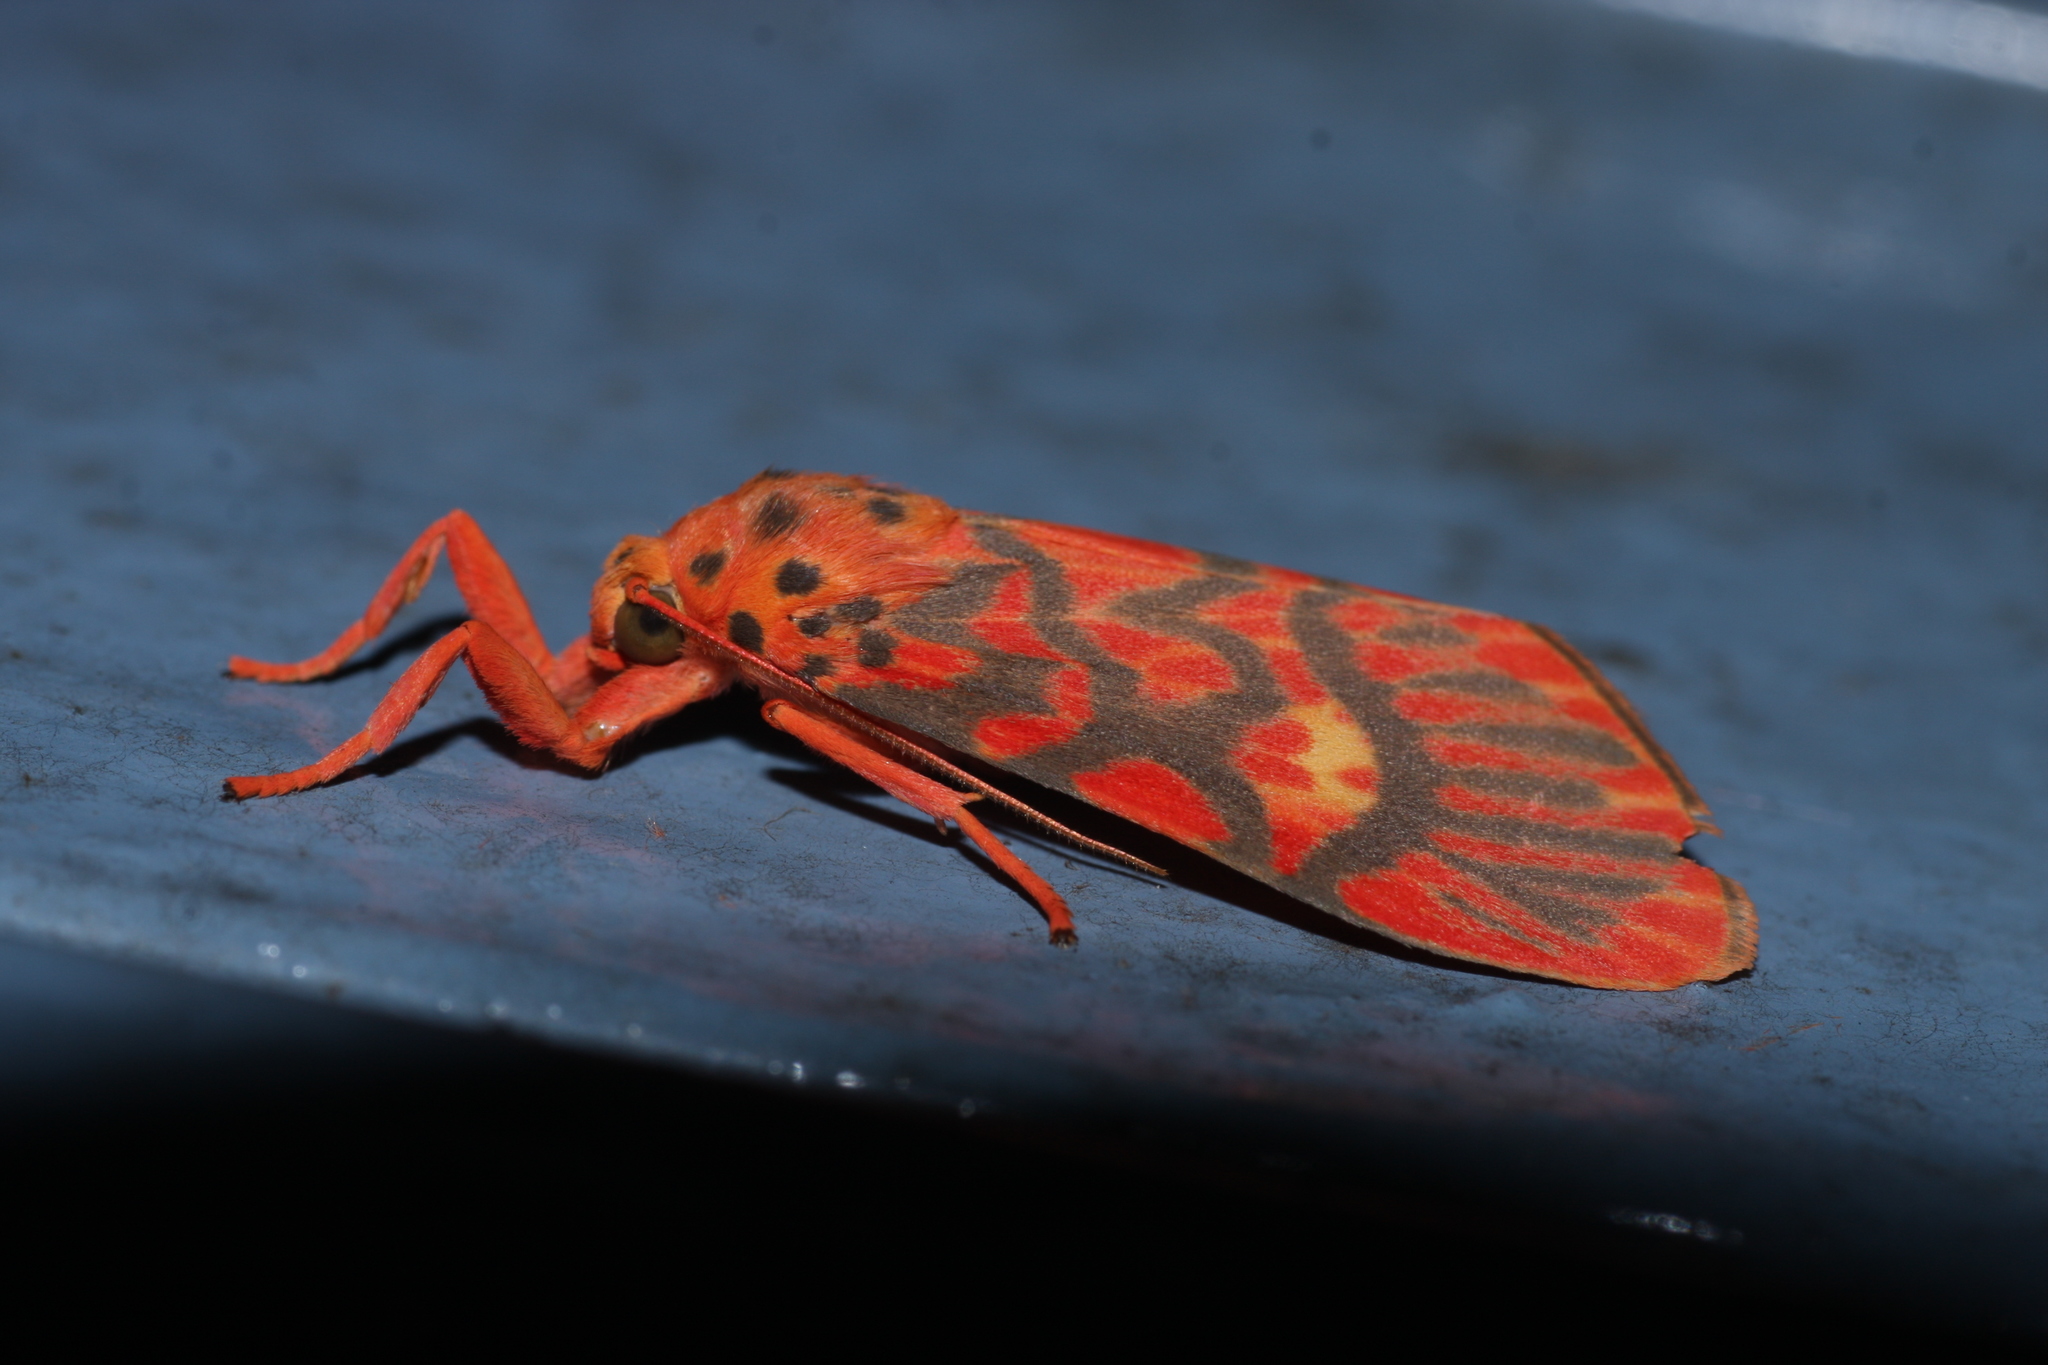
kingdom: Animalia
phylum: Arthropoda
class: Insecta
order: Lepidoptera
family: Erebidae
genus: Ammatho
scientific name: Ammatho cuneonotatus
